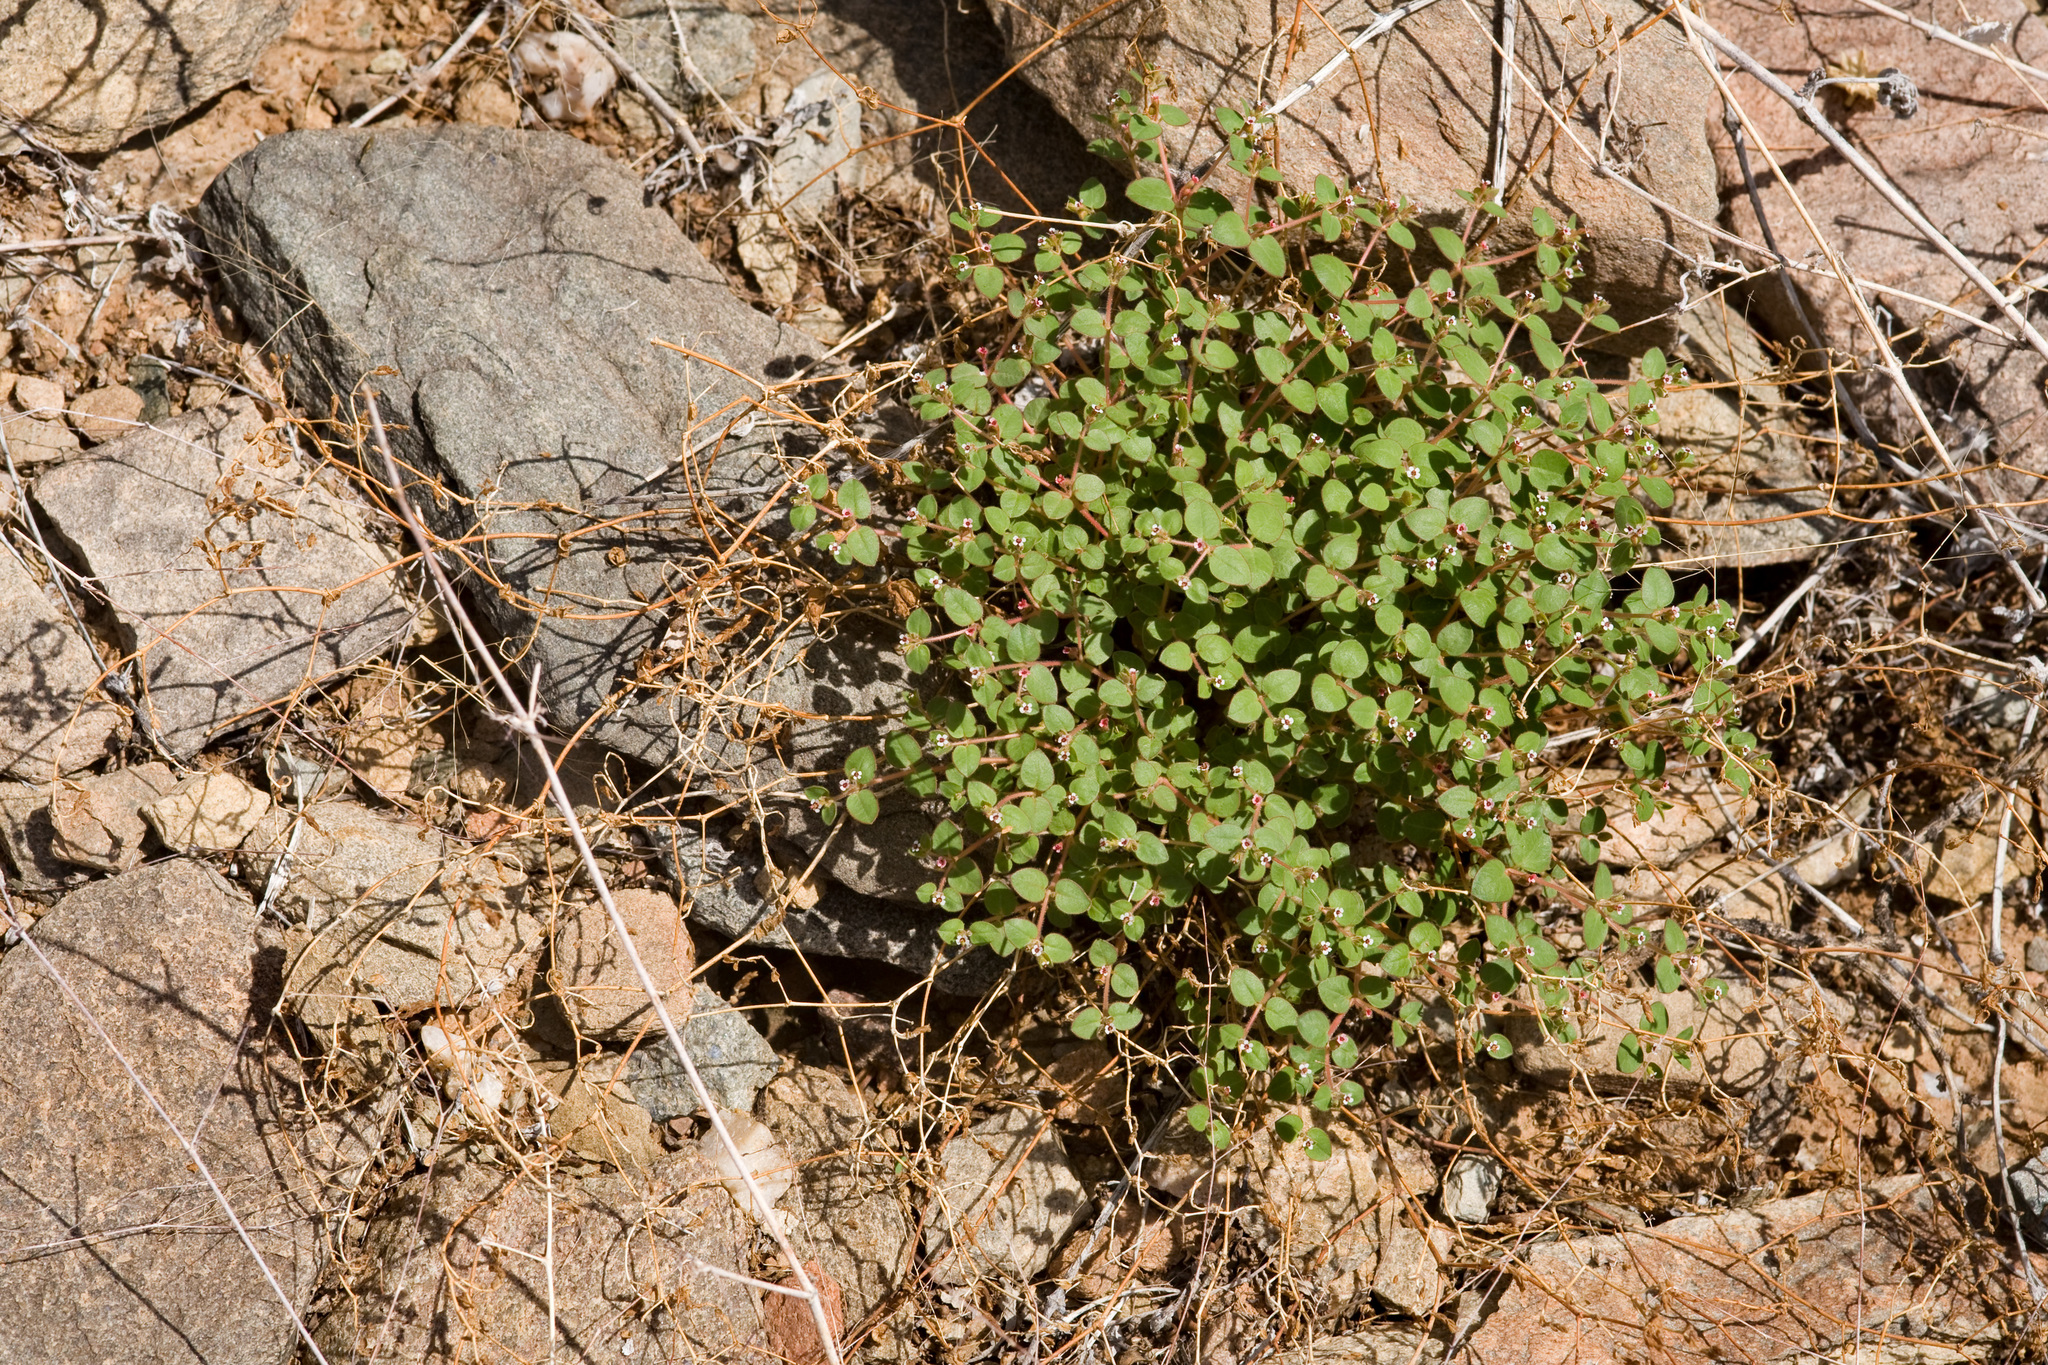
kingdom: Plantae
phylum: Tracheophyta
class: Magnoliopsida
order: Malpighiales
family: Euphorbiaceae
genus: Euphorbia
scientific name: Euphorbia arizonica
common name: Arizona spurge
